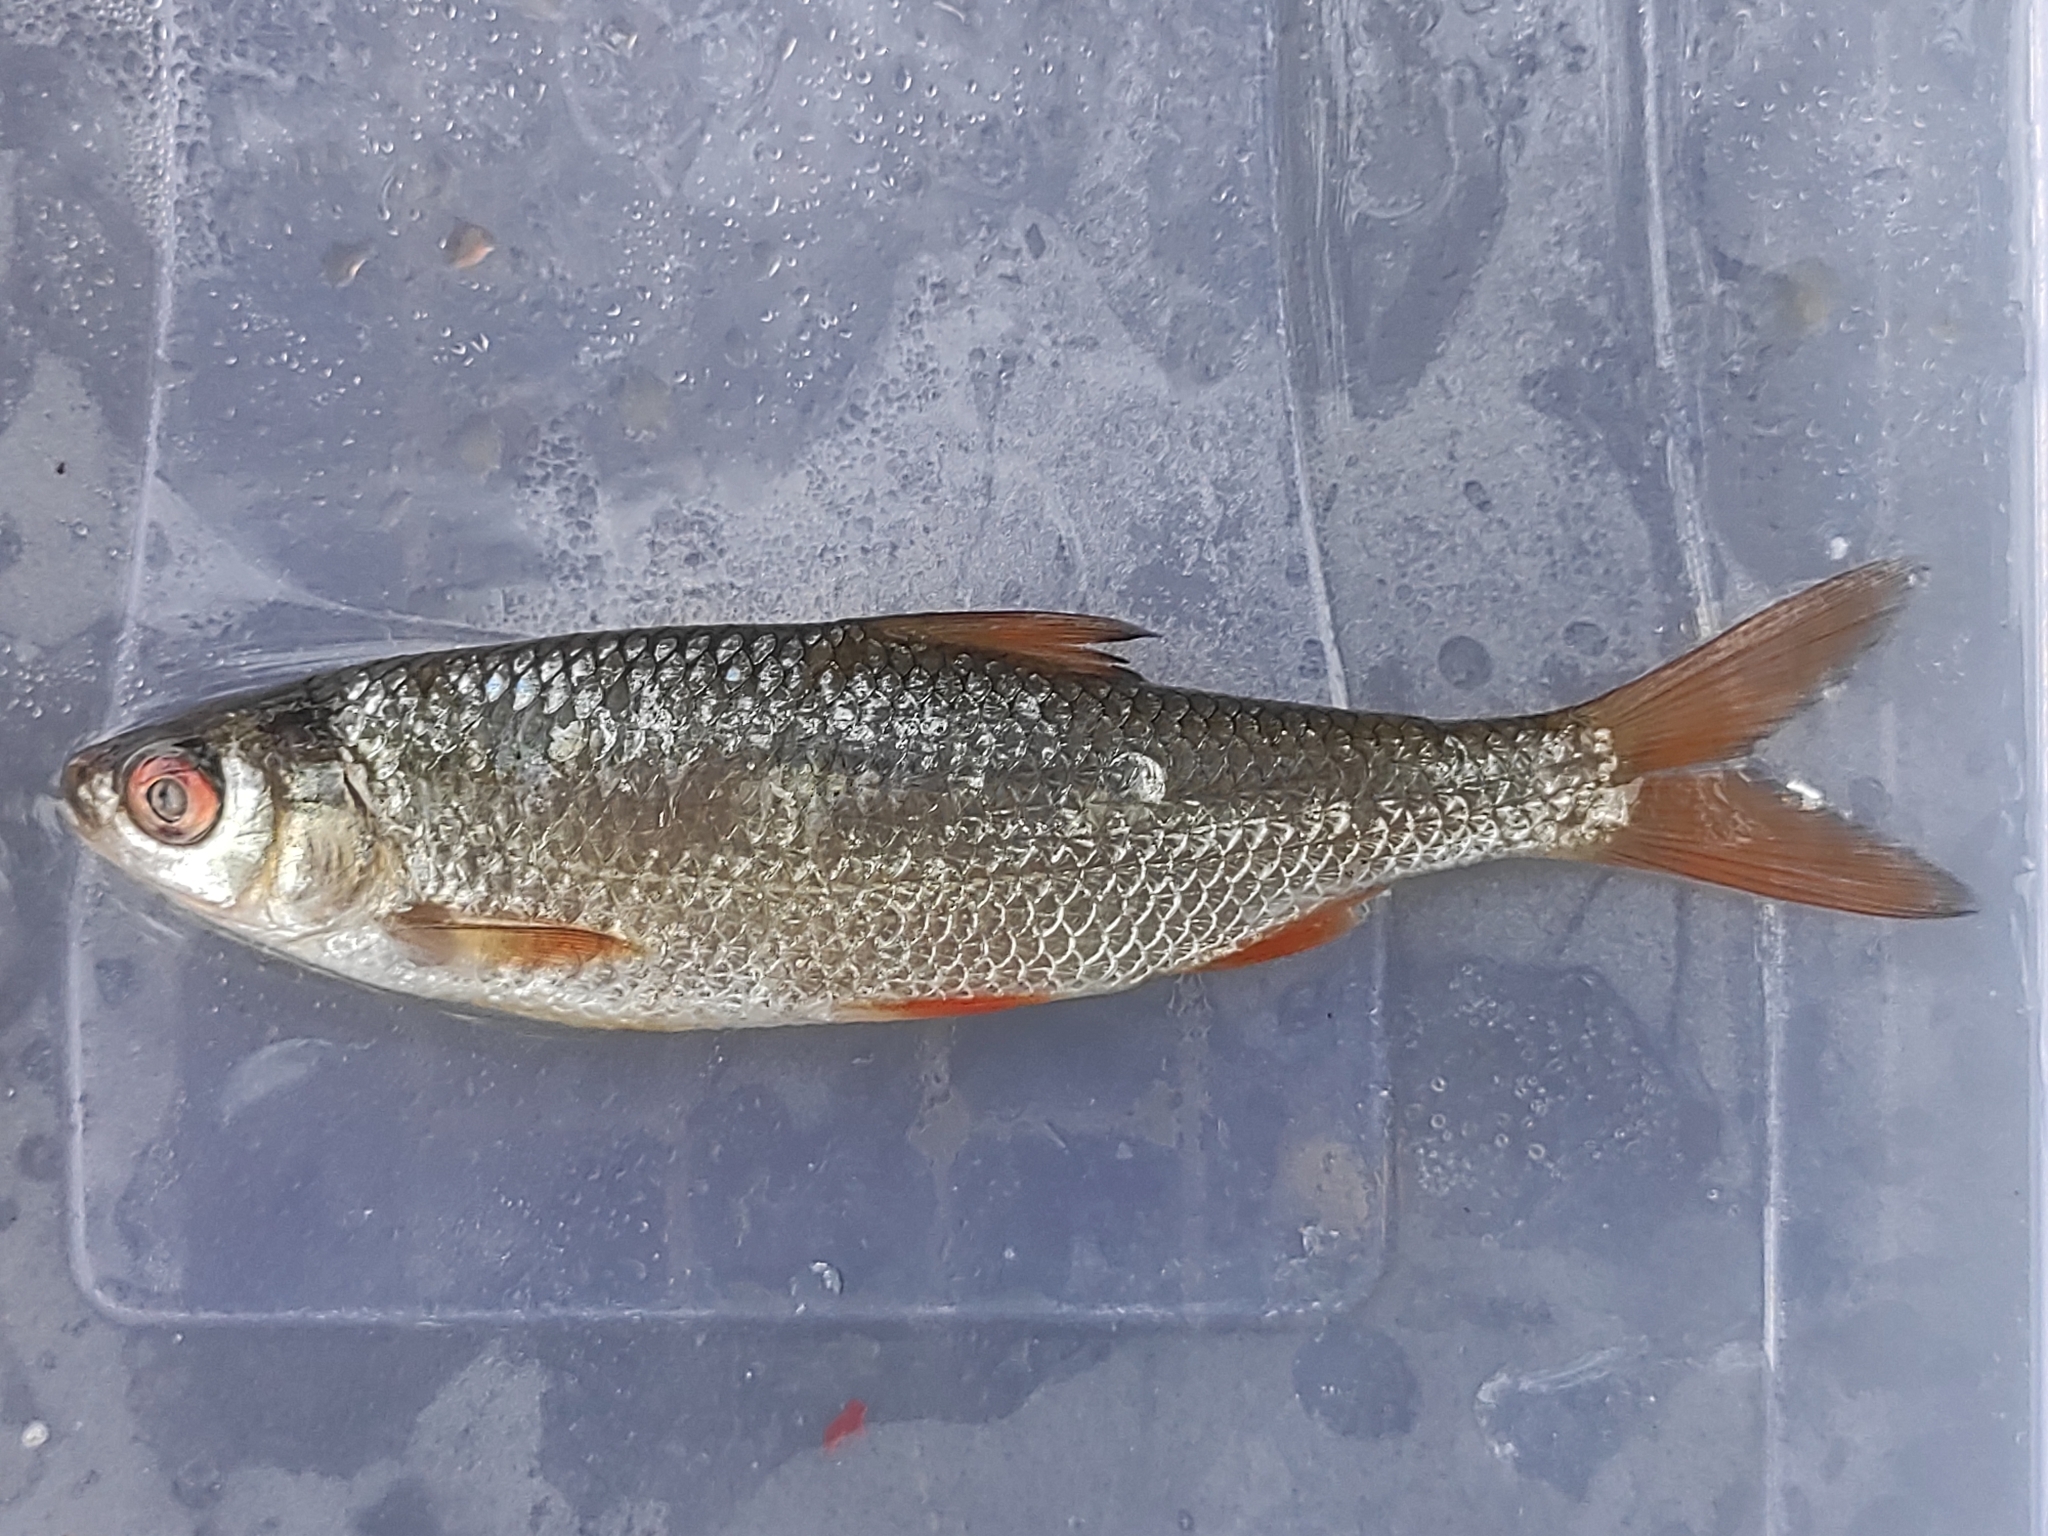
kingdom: Animalia
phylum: Chordata
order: Cypriniformes
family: Cyprinidae
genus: Rutilus
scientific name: Rutilus rutilus
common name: Roach
